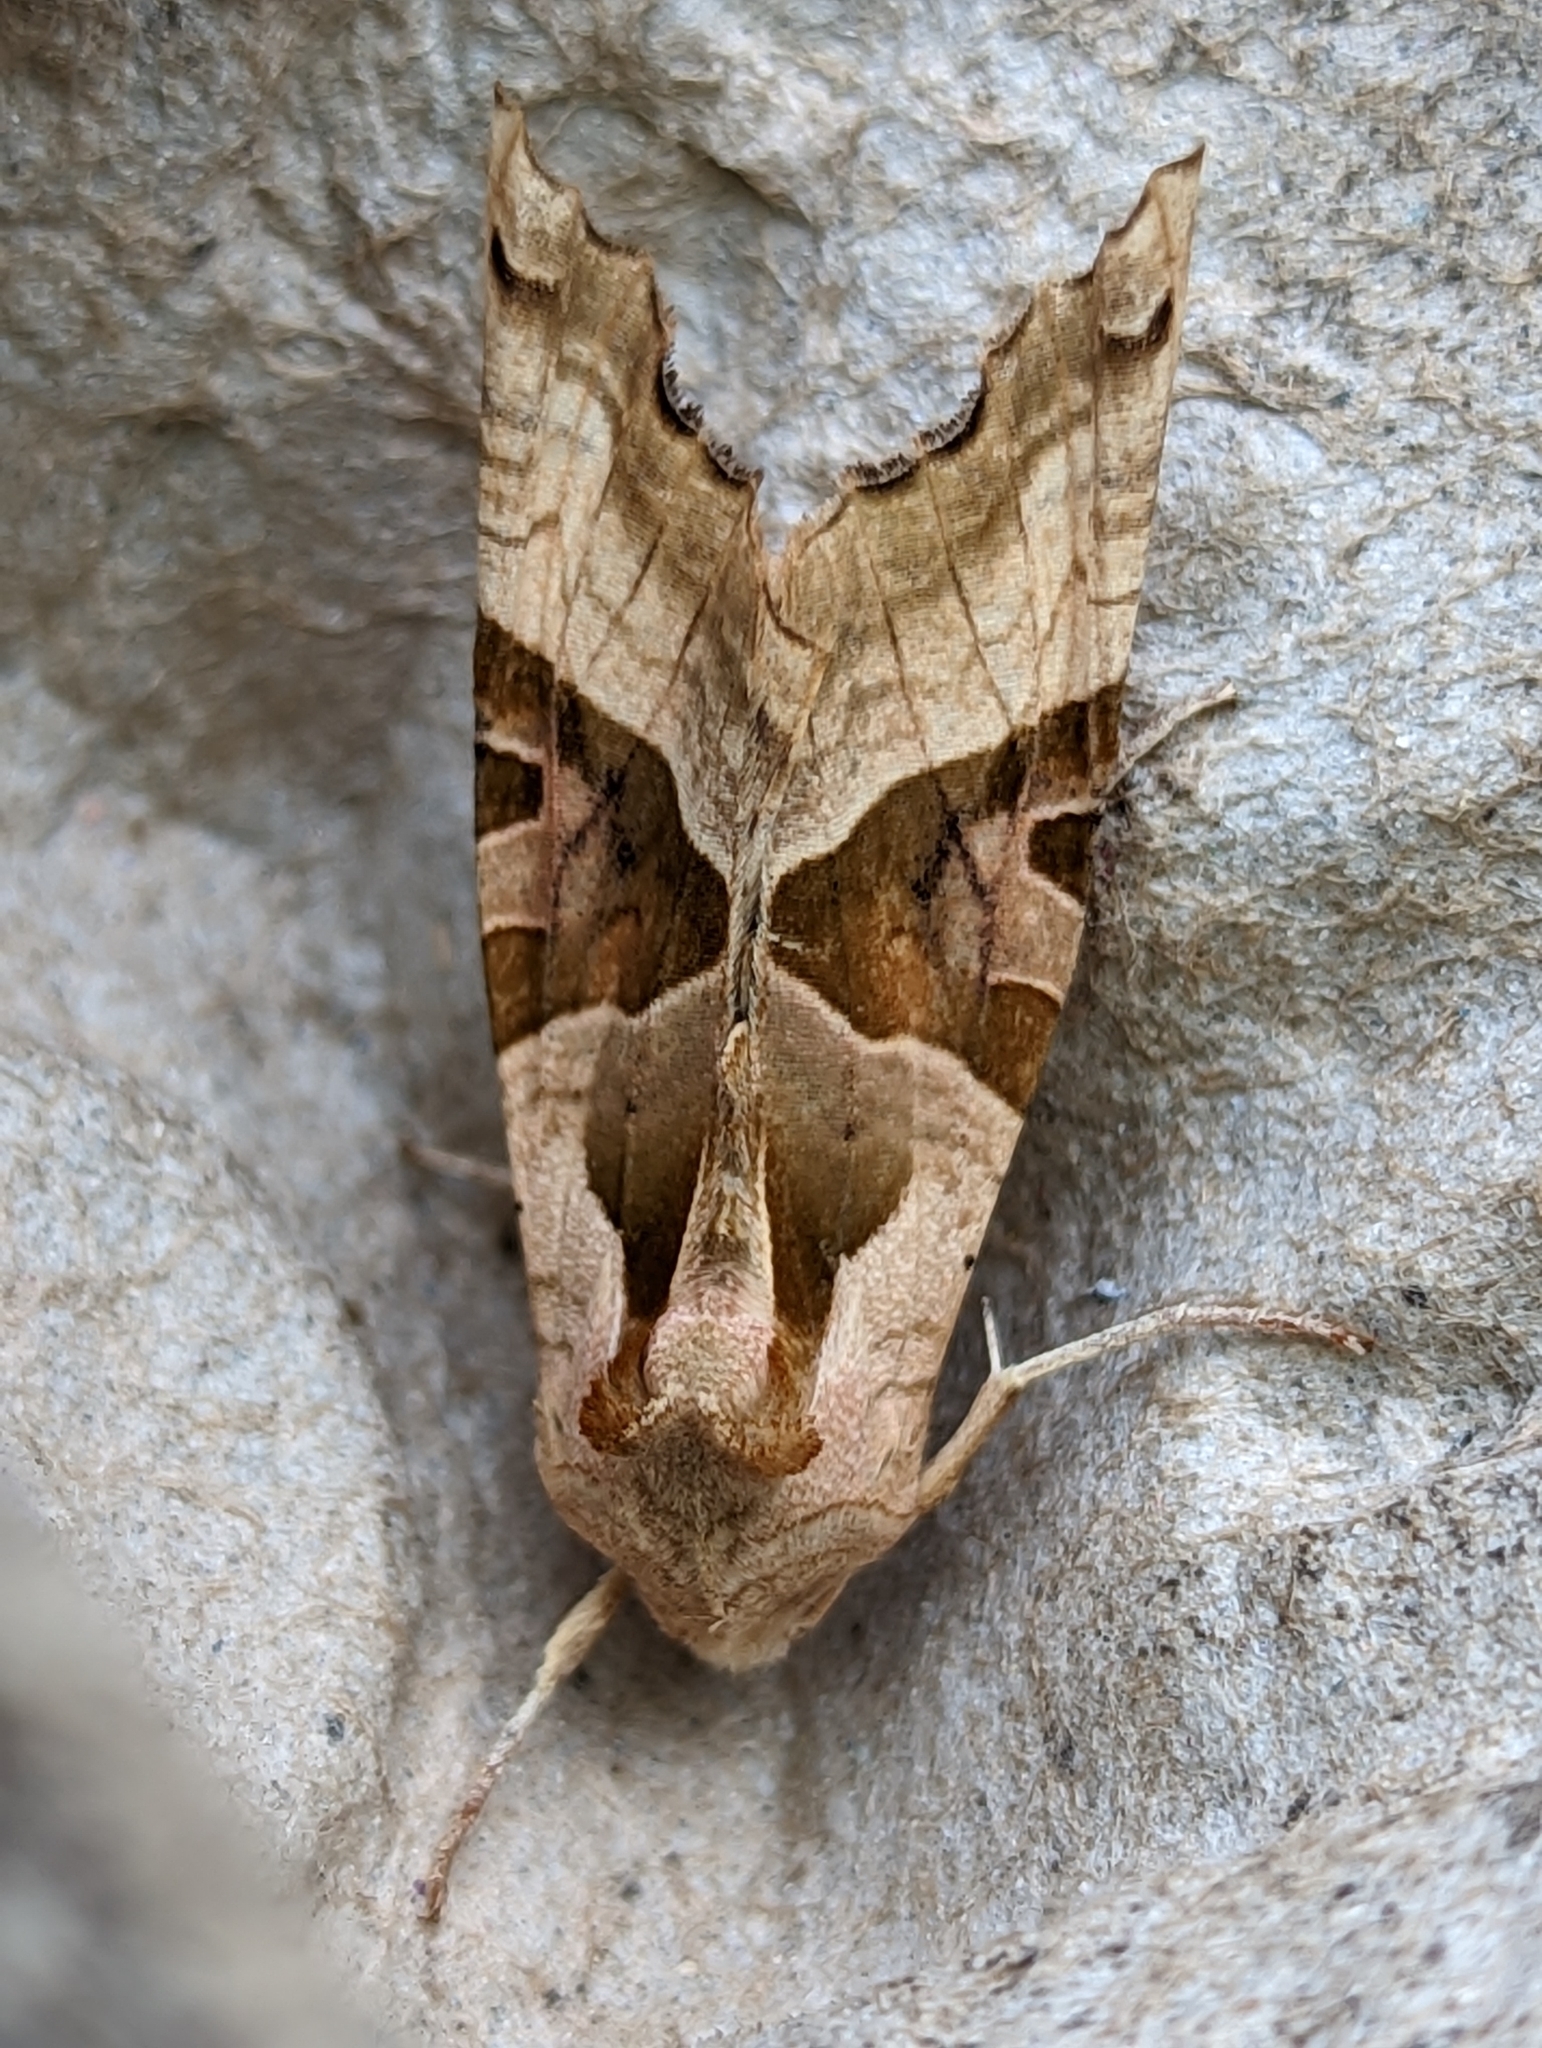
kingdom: Animalia
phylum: Arthropoda
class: Insecta
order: Lepidoptera
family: Noctuidae
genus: Phlogophora
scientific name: Phlogophora meticulosa
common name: Angle shades
